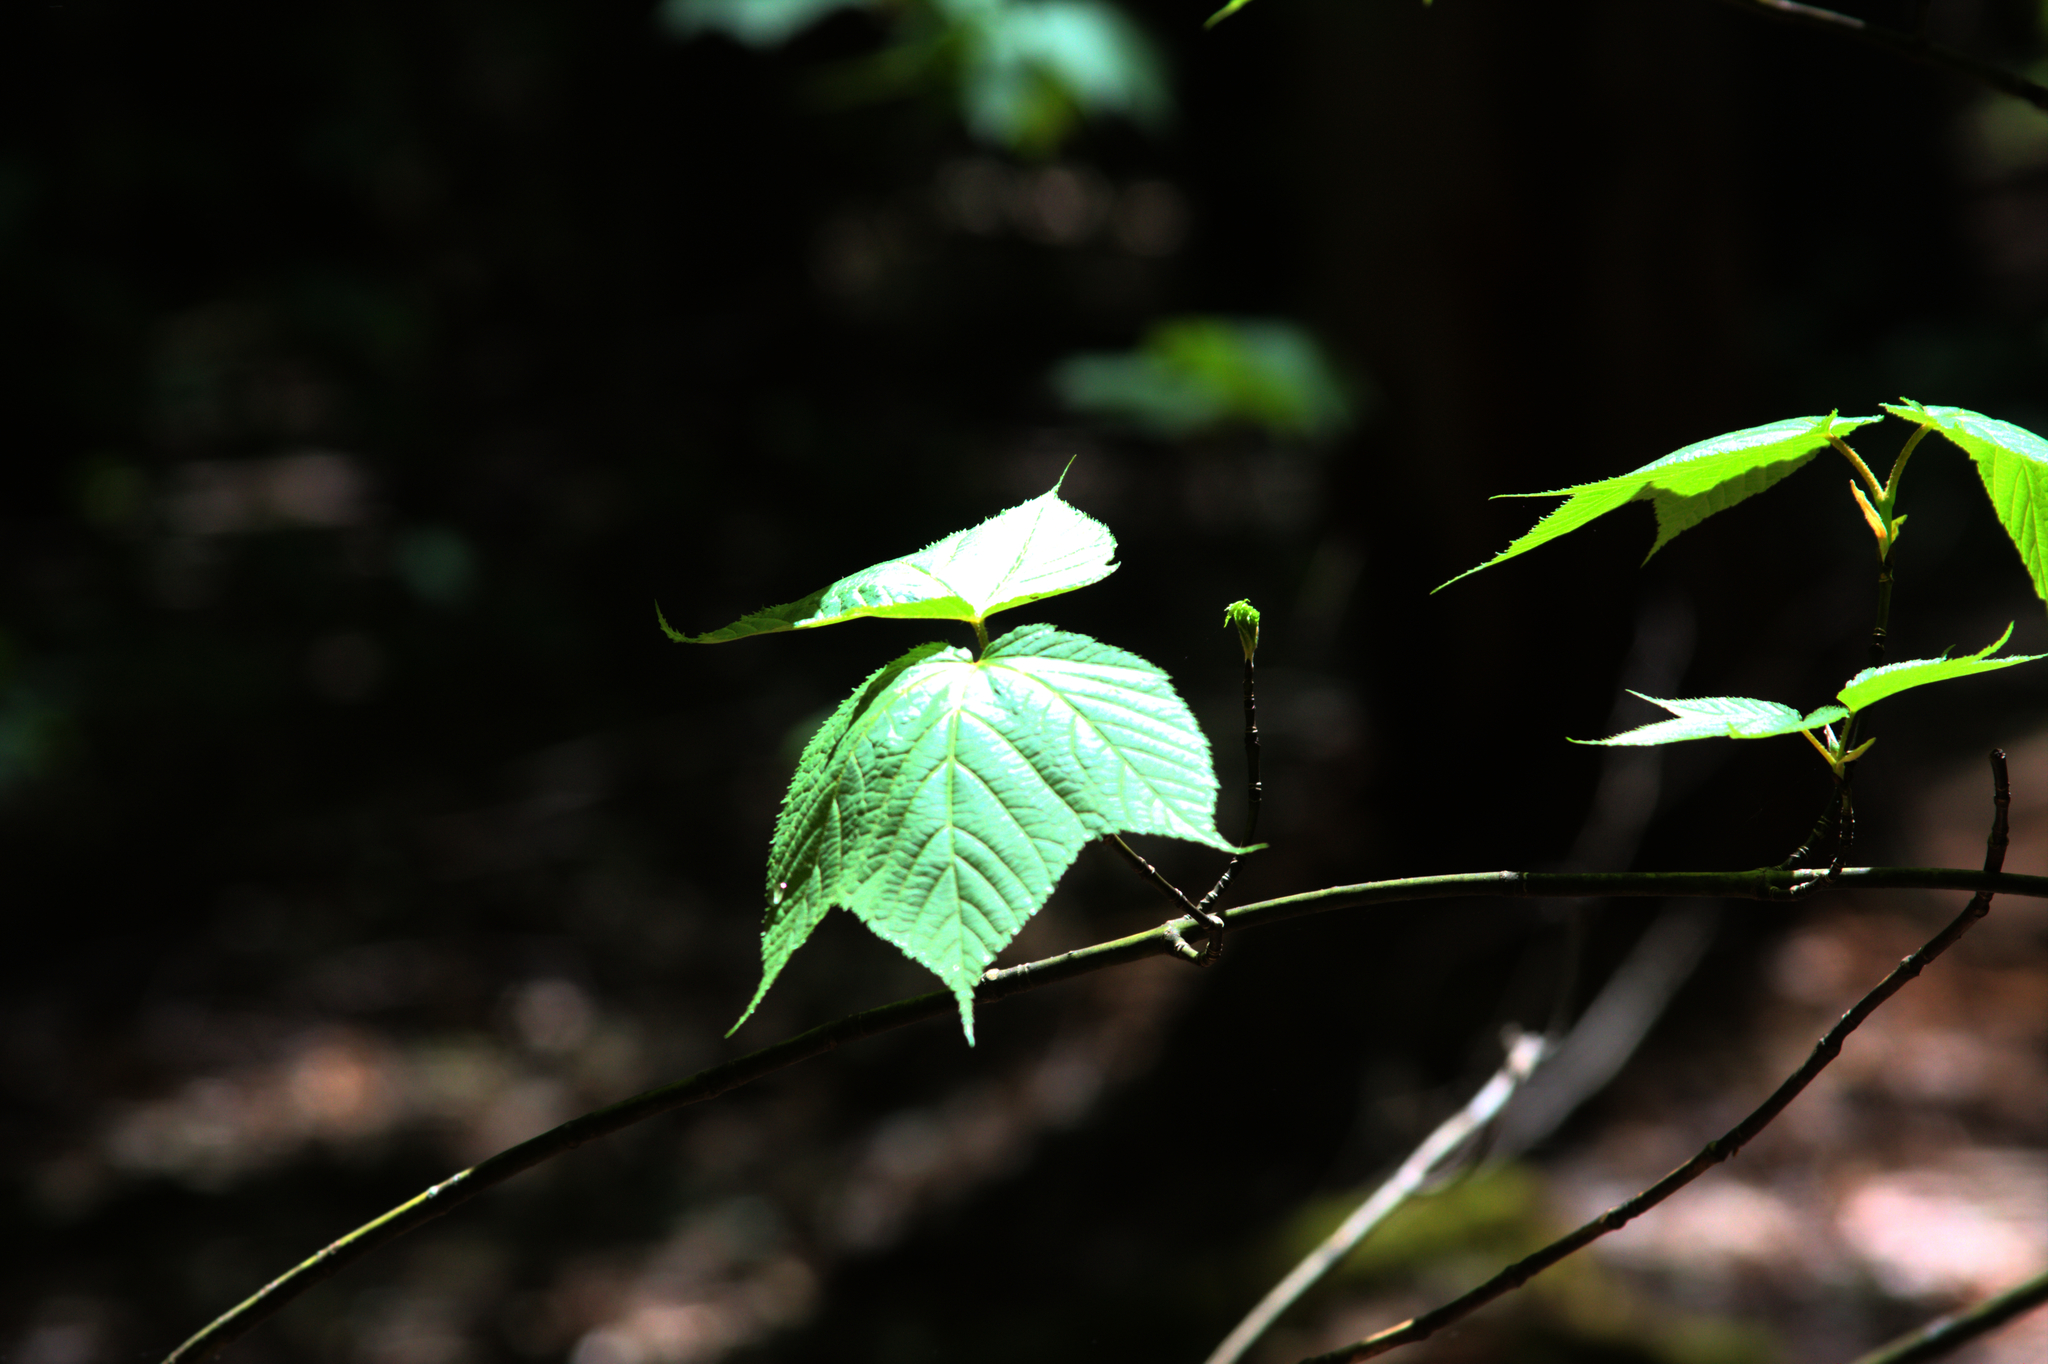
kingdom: Plantae
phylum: Tracheophyta
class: Magnoliopsida
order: Sapindales
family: Sapindaceae
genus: Acer
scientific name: Acer pensylvanicum
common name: Moosewood
